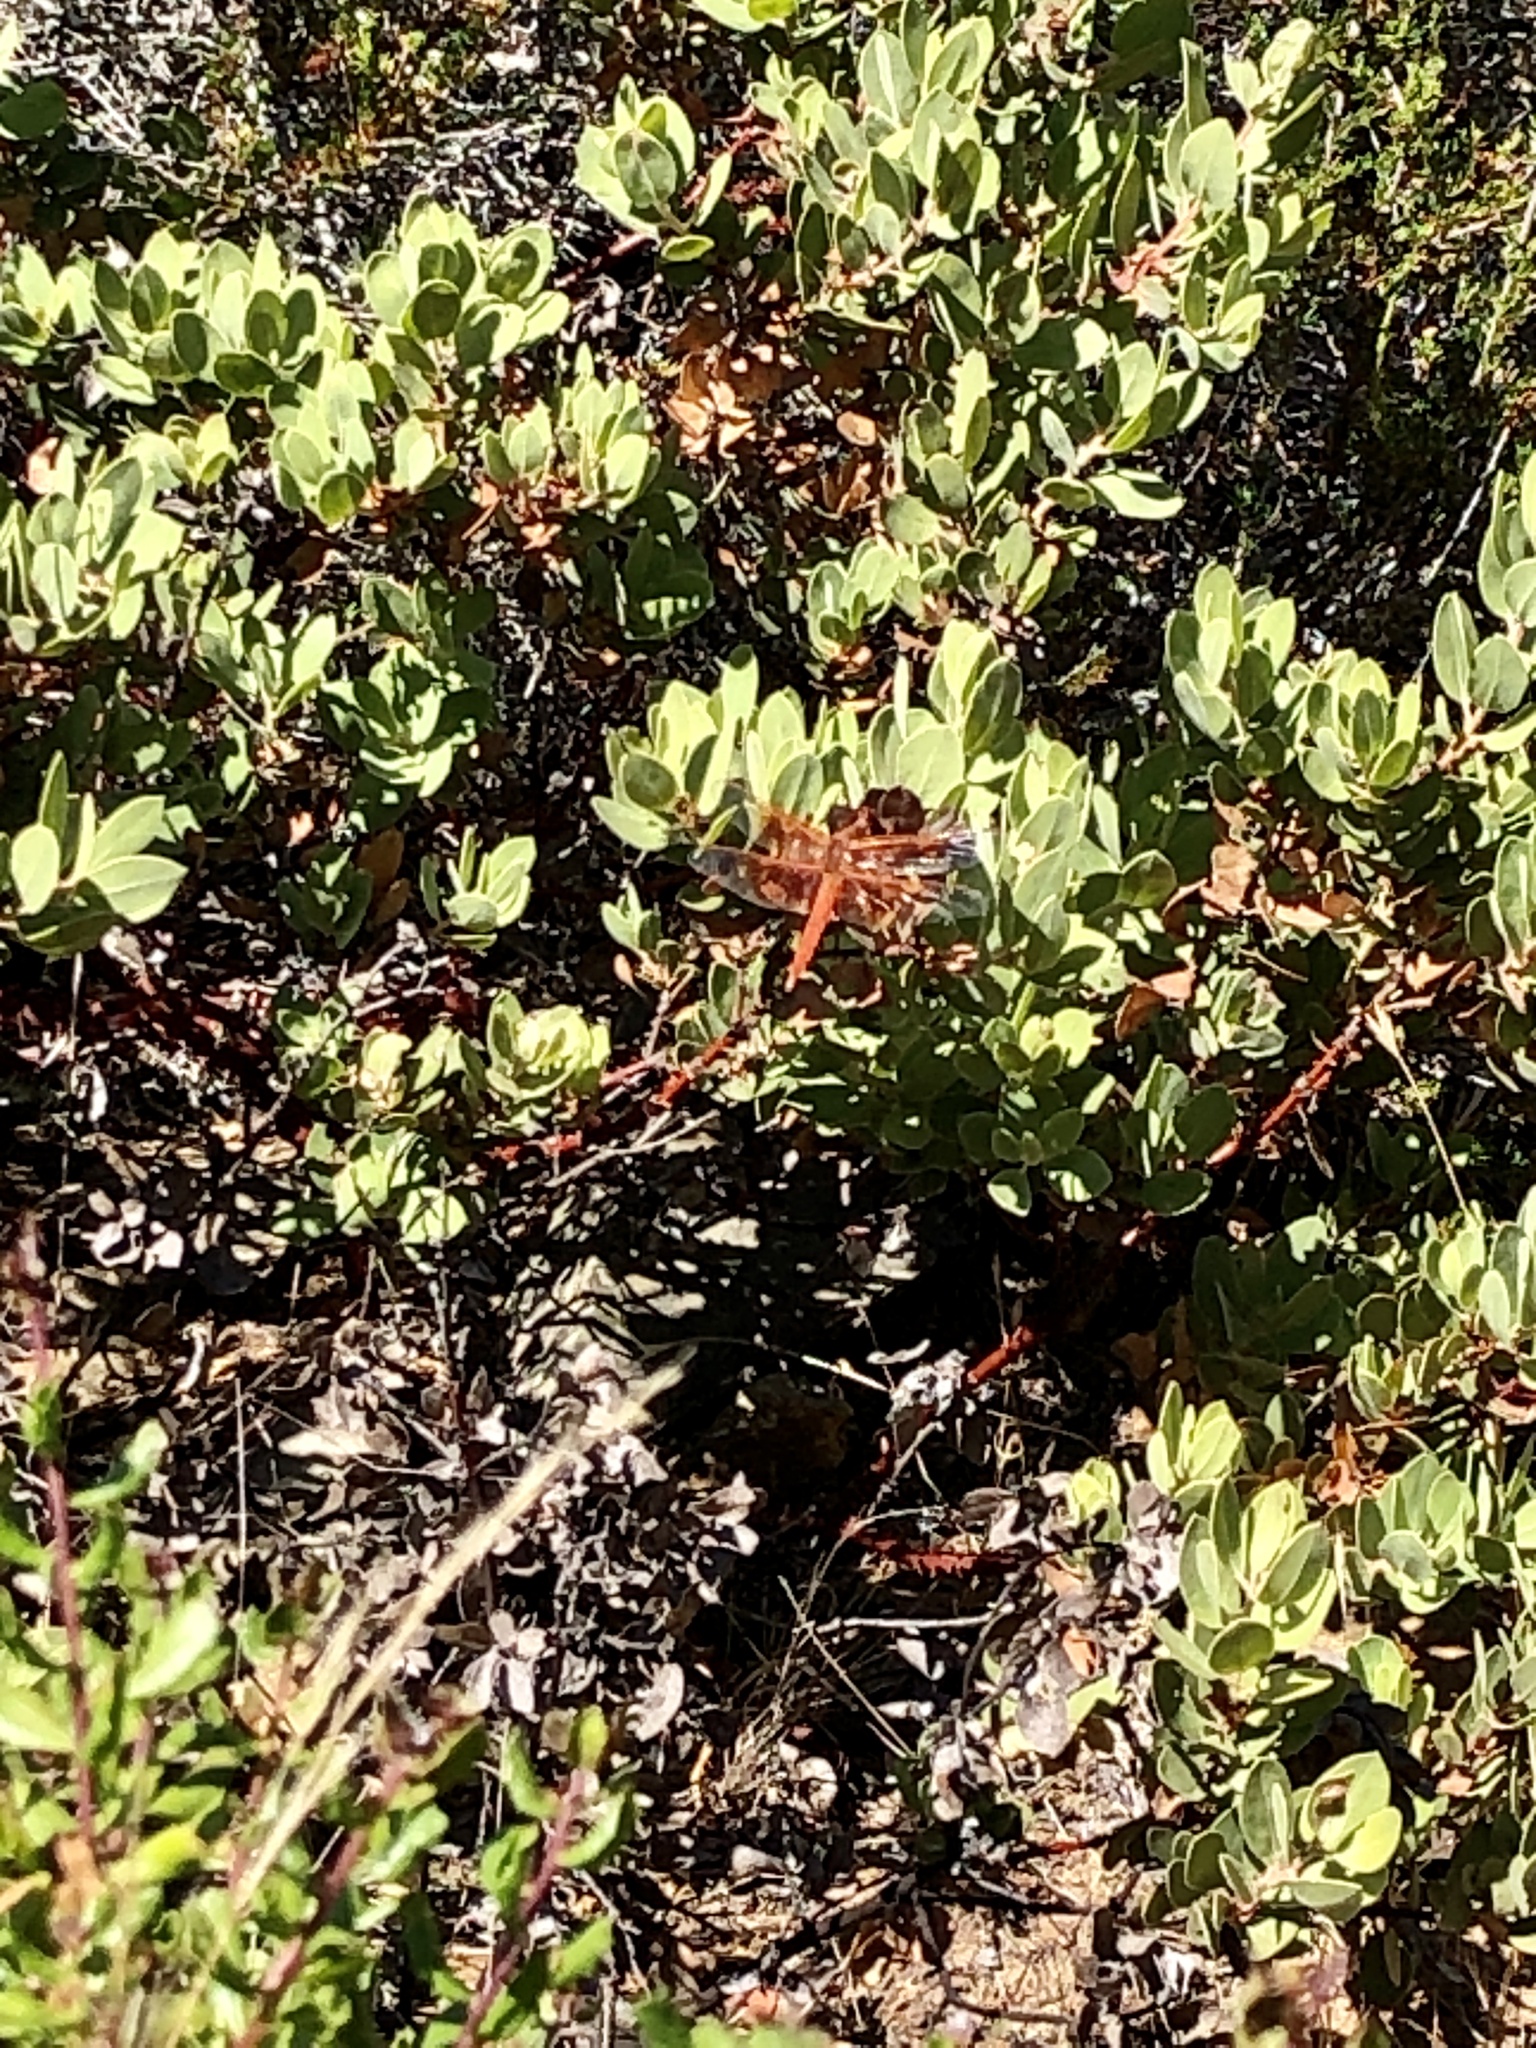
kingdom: Animalia
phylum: Arthropoda
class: Insecta
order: Odonata
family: Libellulidae
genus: Libellula
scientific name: Libellula saturata
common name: Flame skimmer
